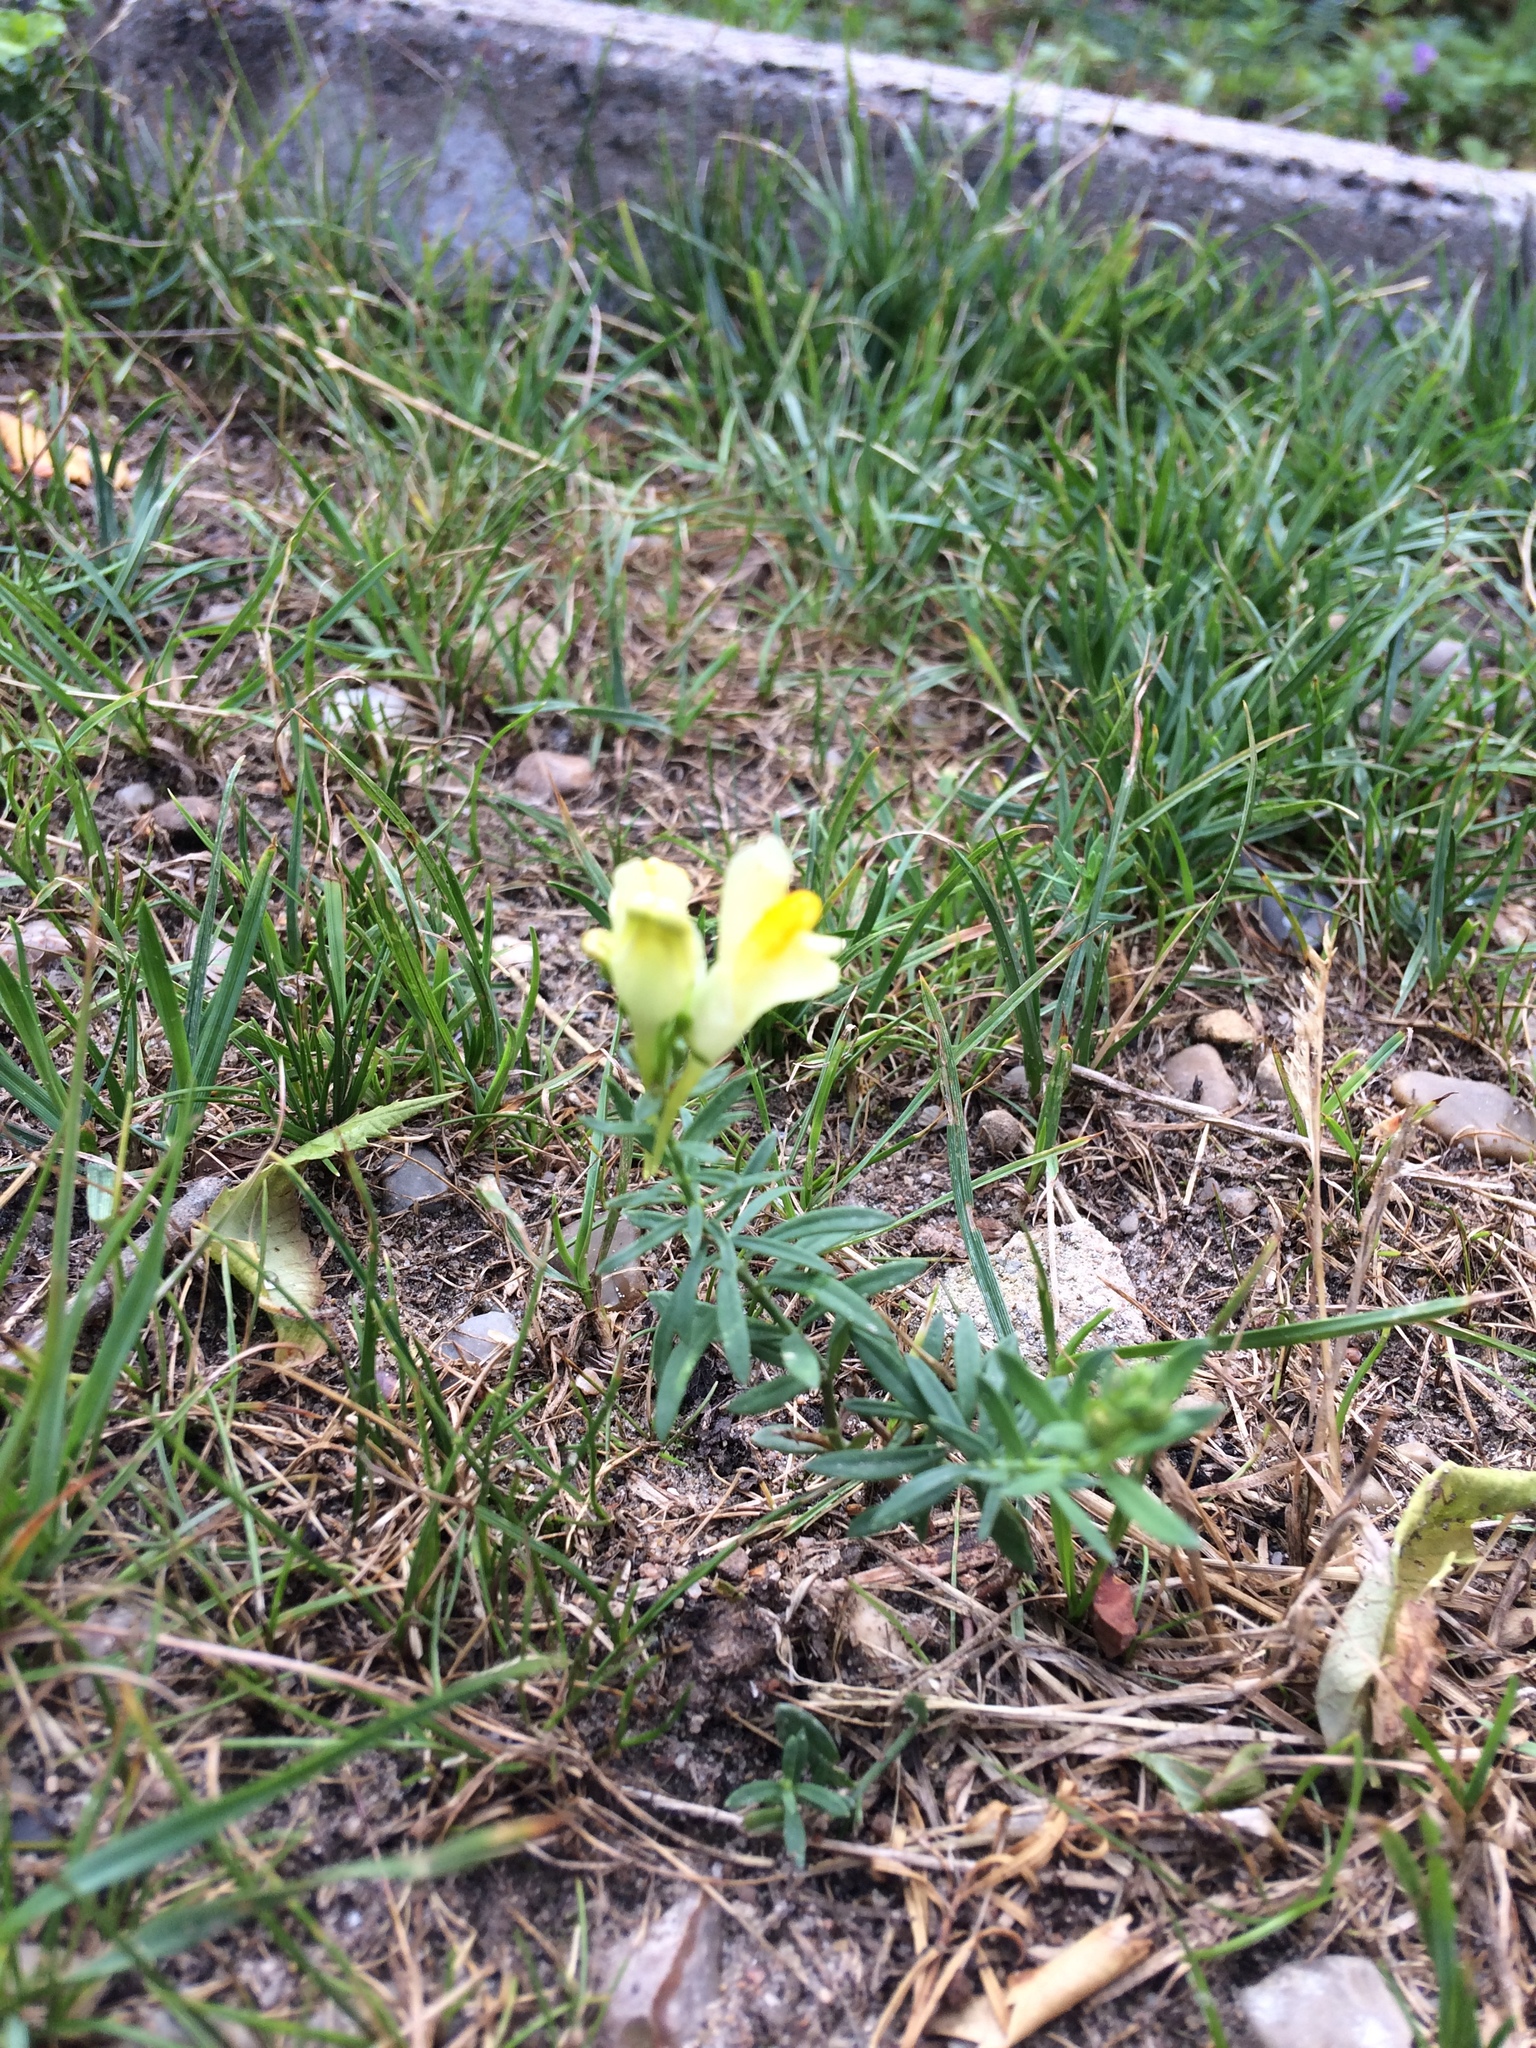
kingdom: Plantae
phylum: Tracheophyta
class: Magnoliopsida
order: Lamiales
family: Plantaginaceae
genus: Linaria
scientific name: Linaria vulgaris
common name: Butter and eggs
